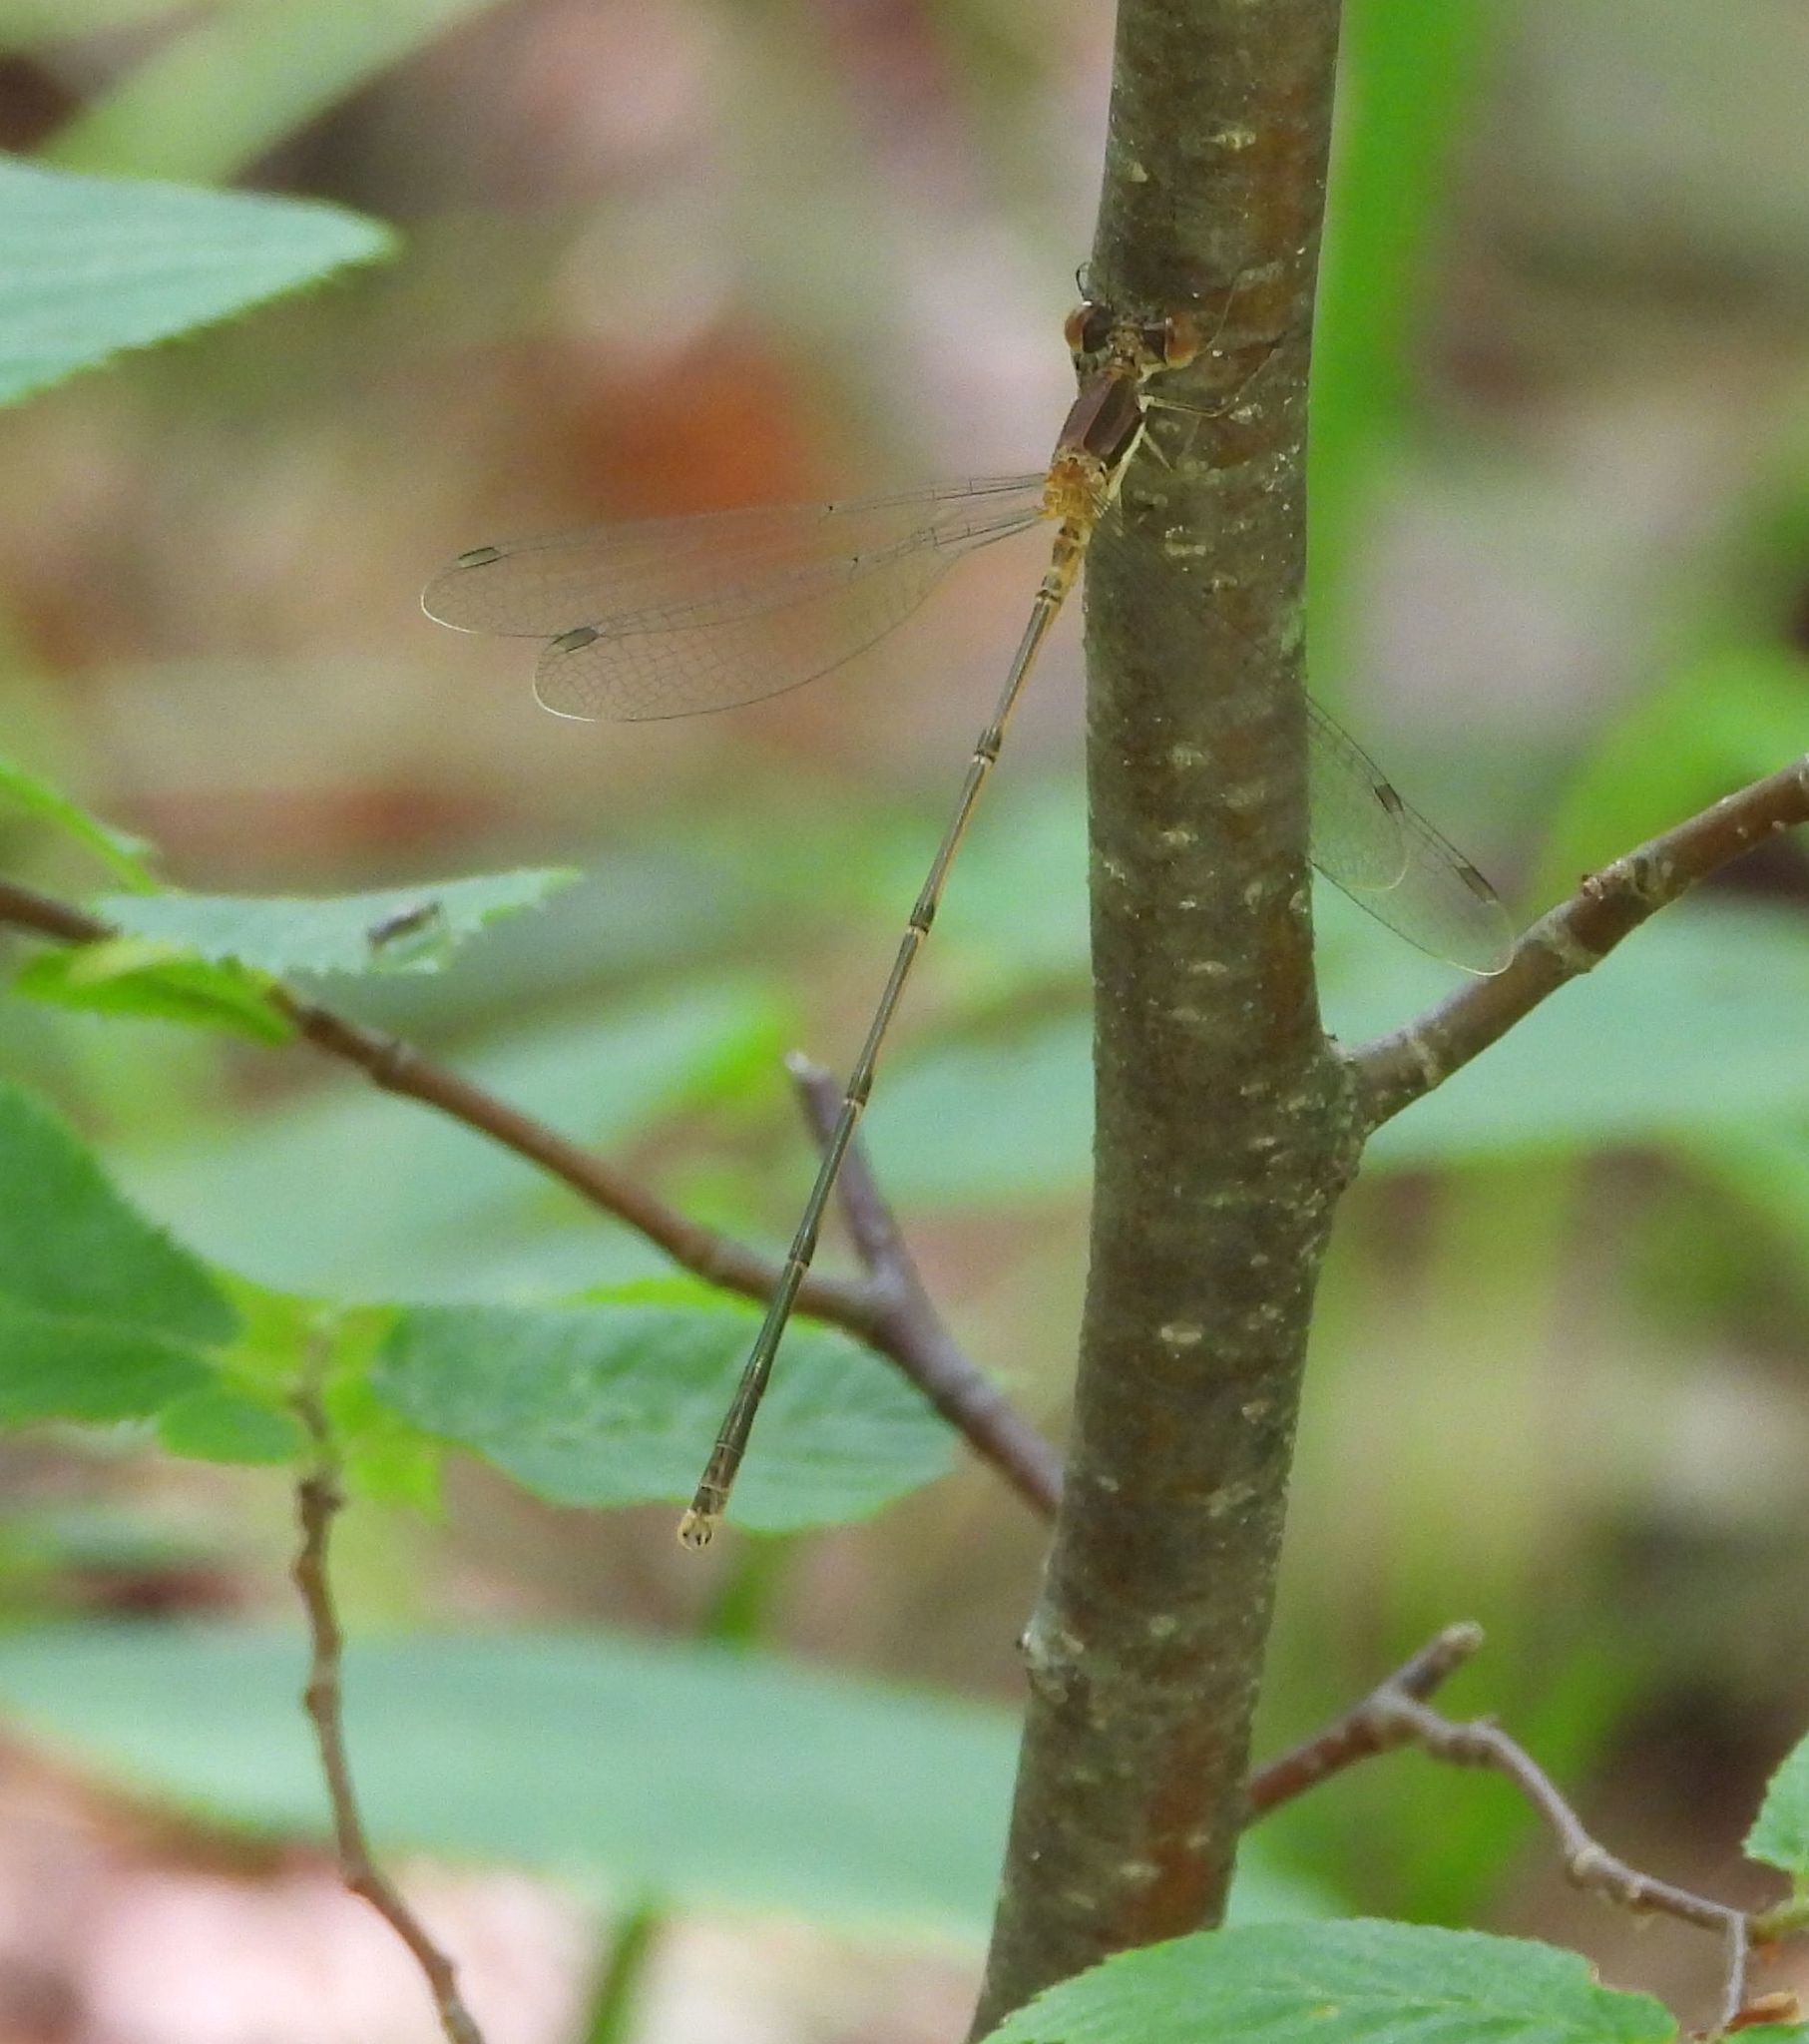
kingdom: Animalia
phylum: Arthropoda
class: Insecta
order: Odonata
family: Lestidae
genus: Lestes
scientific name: Lestes rectangularis
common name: Slender spreadwing
